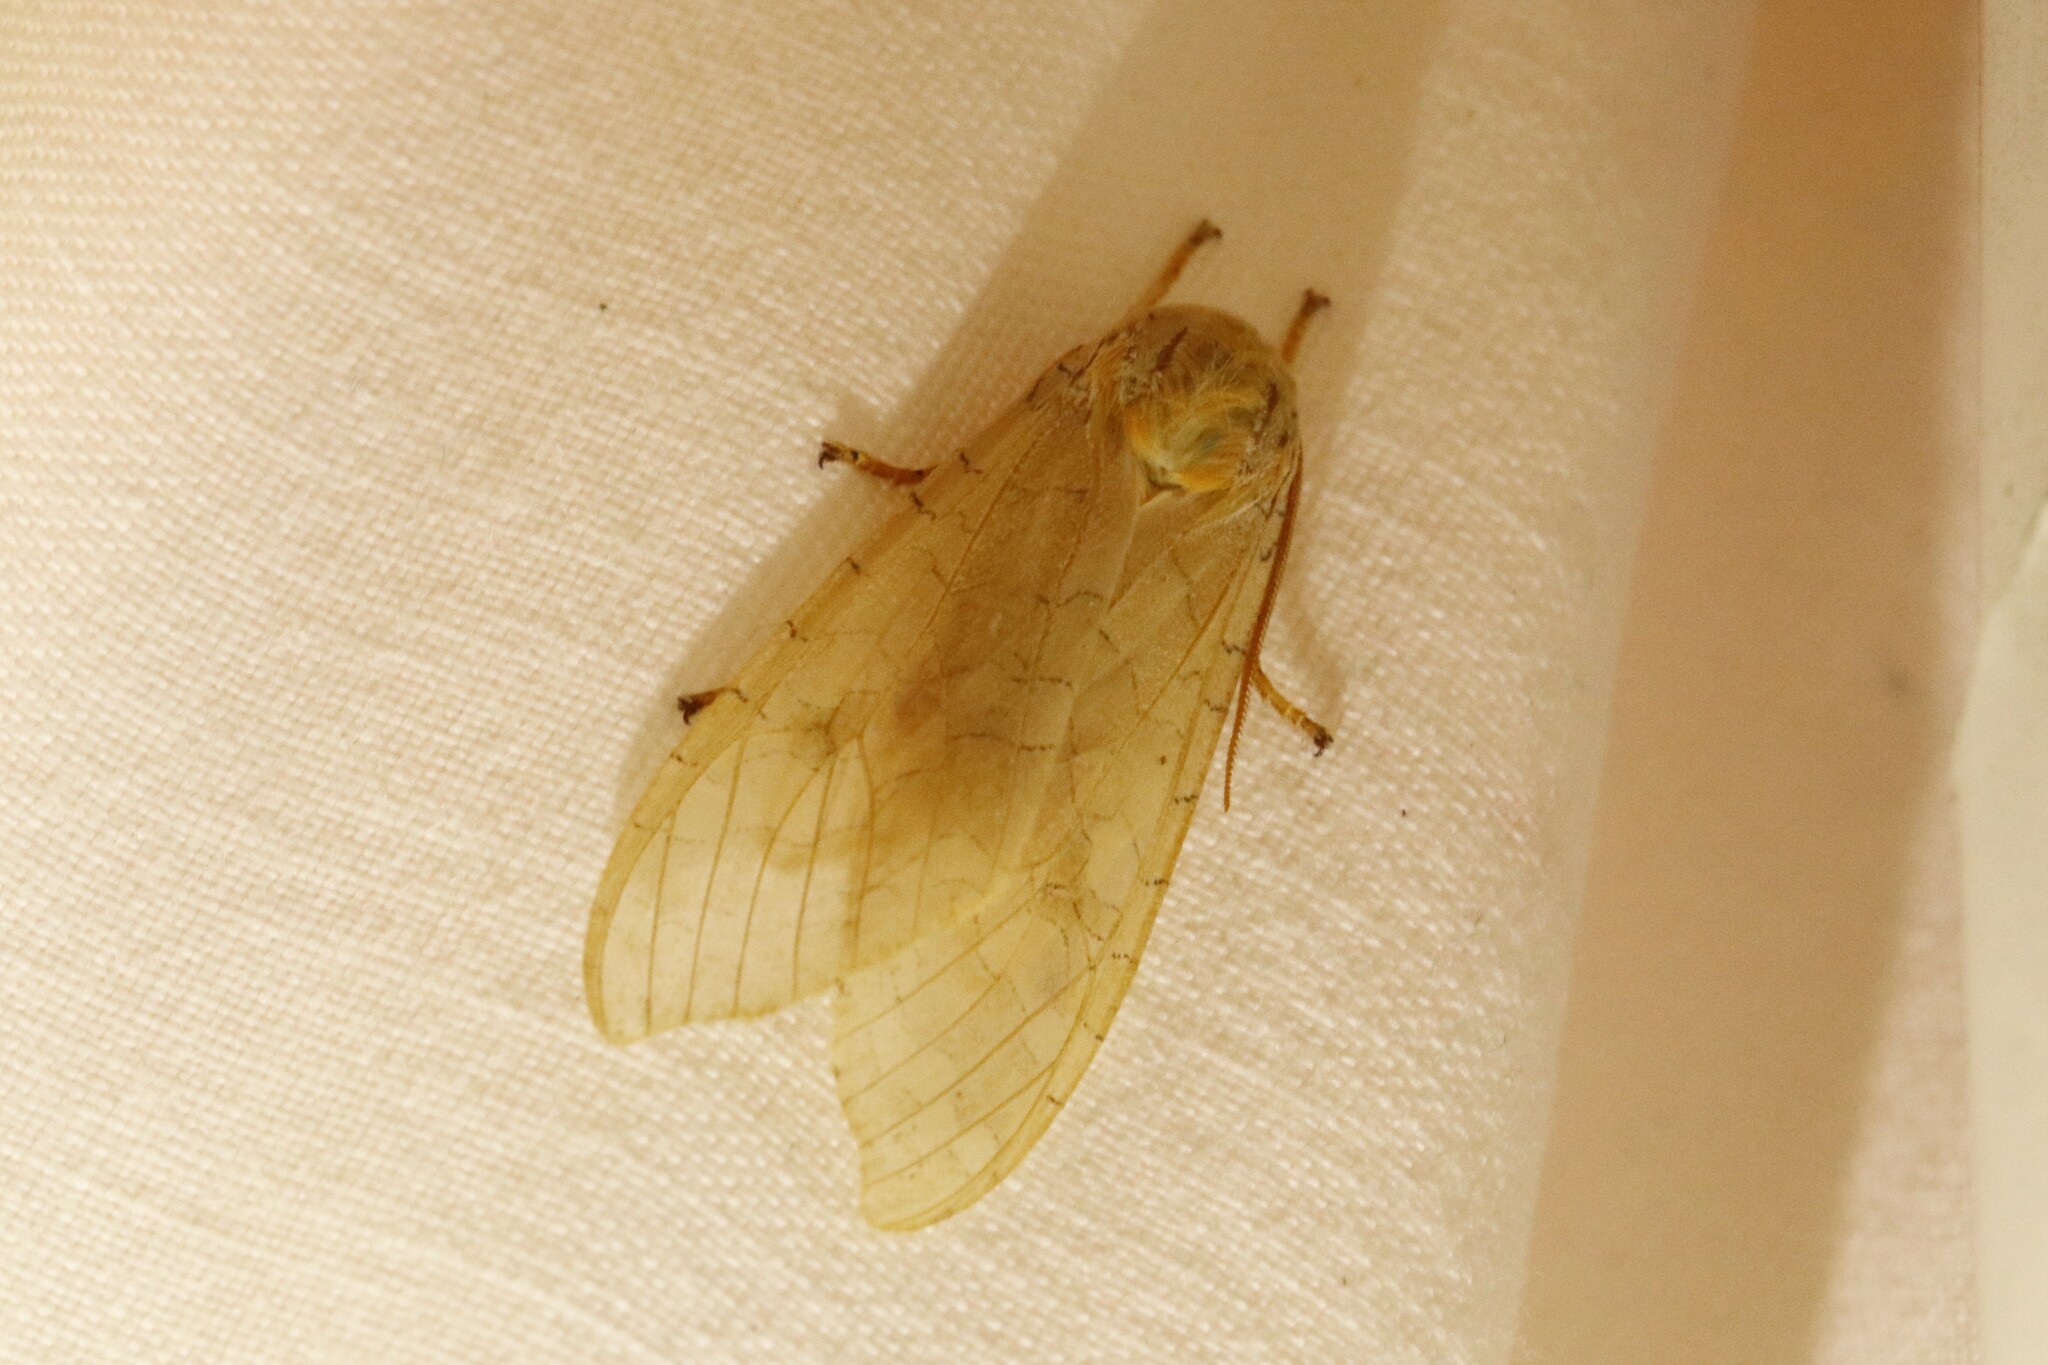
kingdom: Animalia
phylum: Arthropoda
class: Insecta
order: Lepidoptera
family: Erebidae
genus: Halysidota
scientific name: Halysidota tessellaris
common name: Banded tussock moth
